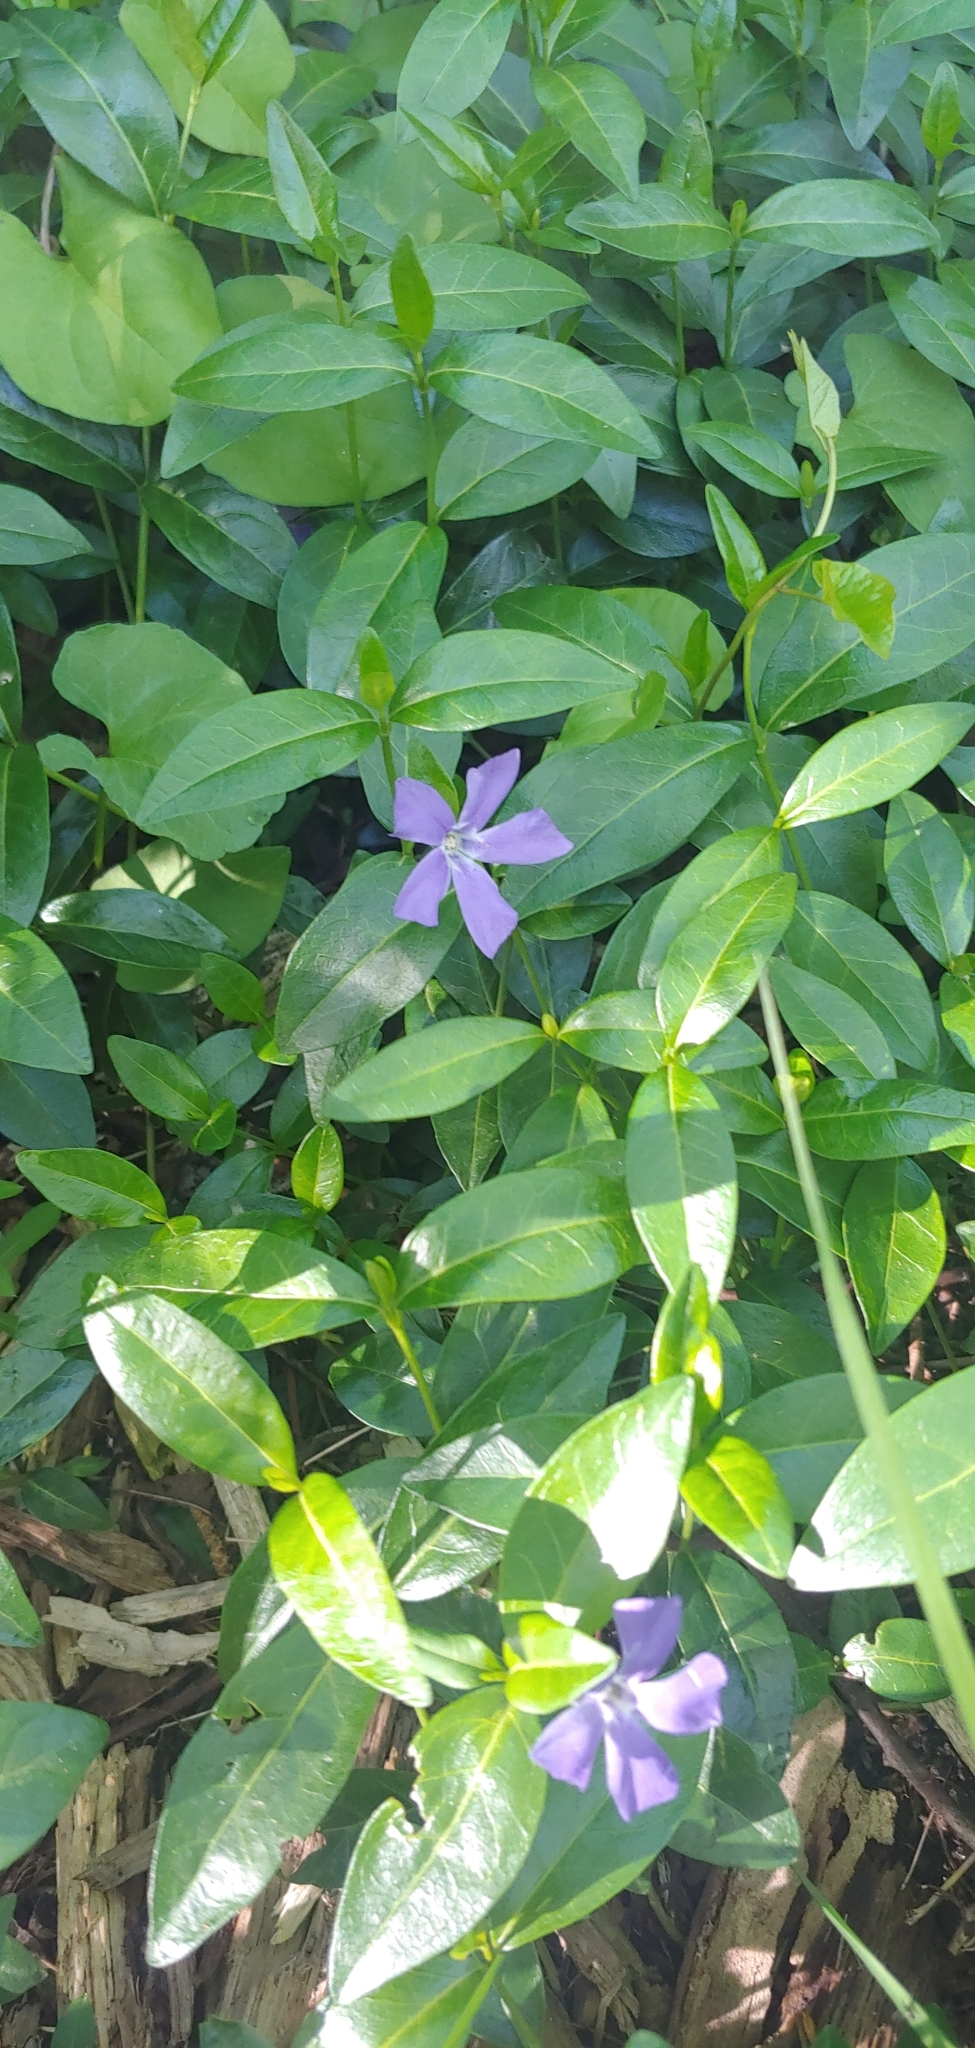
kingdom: Plantae
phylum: Tracheophyta
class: Magnoliopsida
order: Gentianales
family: Apocynaceae
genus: Vinca
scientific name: Vinca minor
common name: Lesser periwinkle
